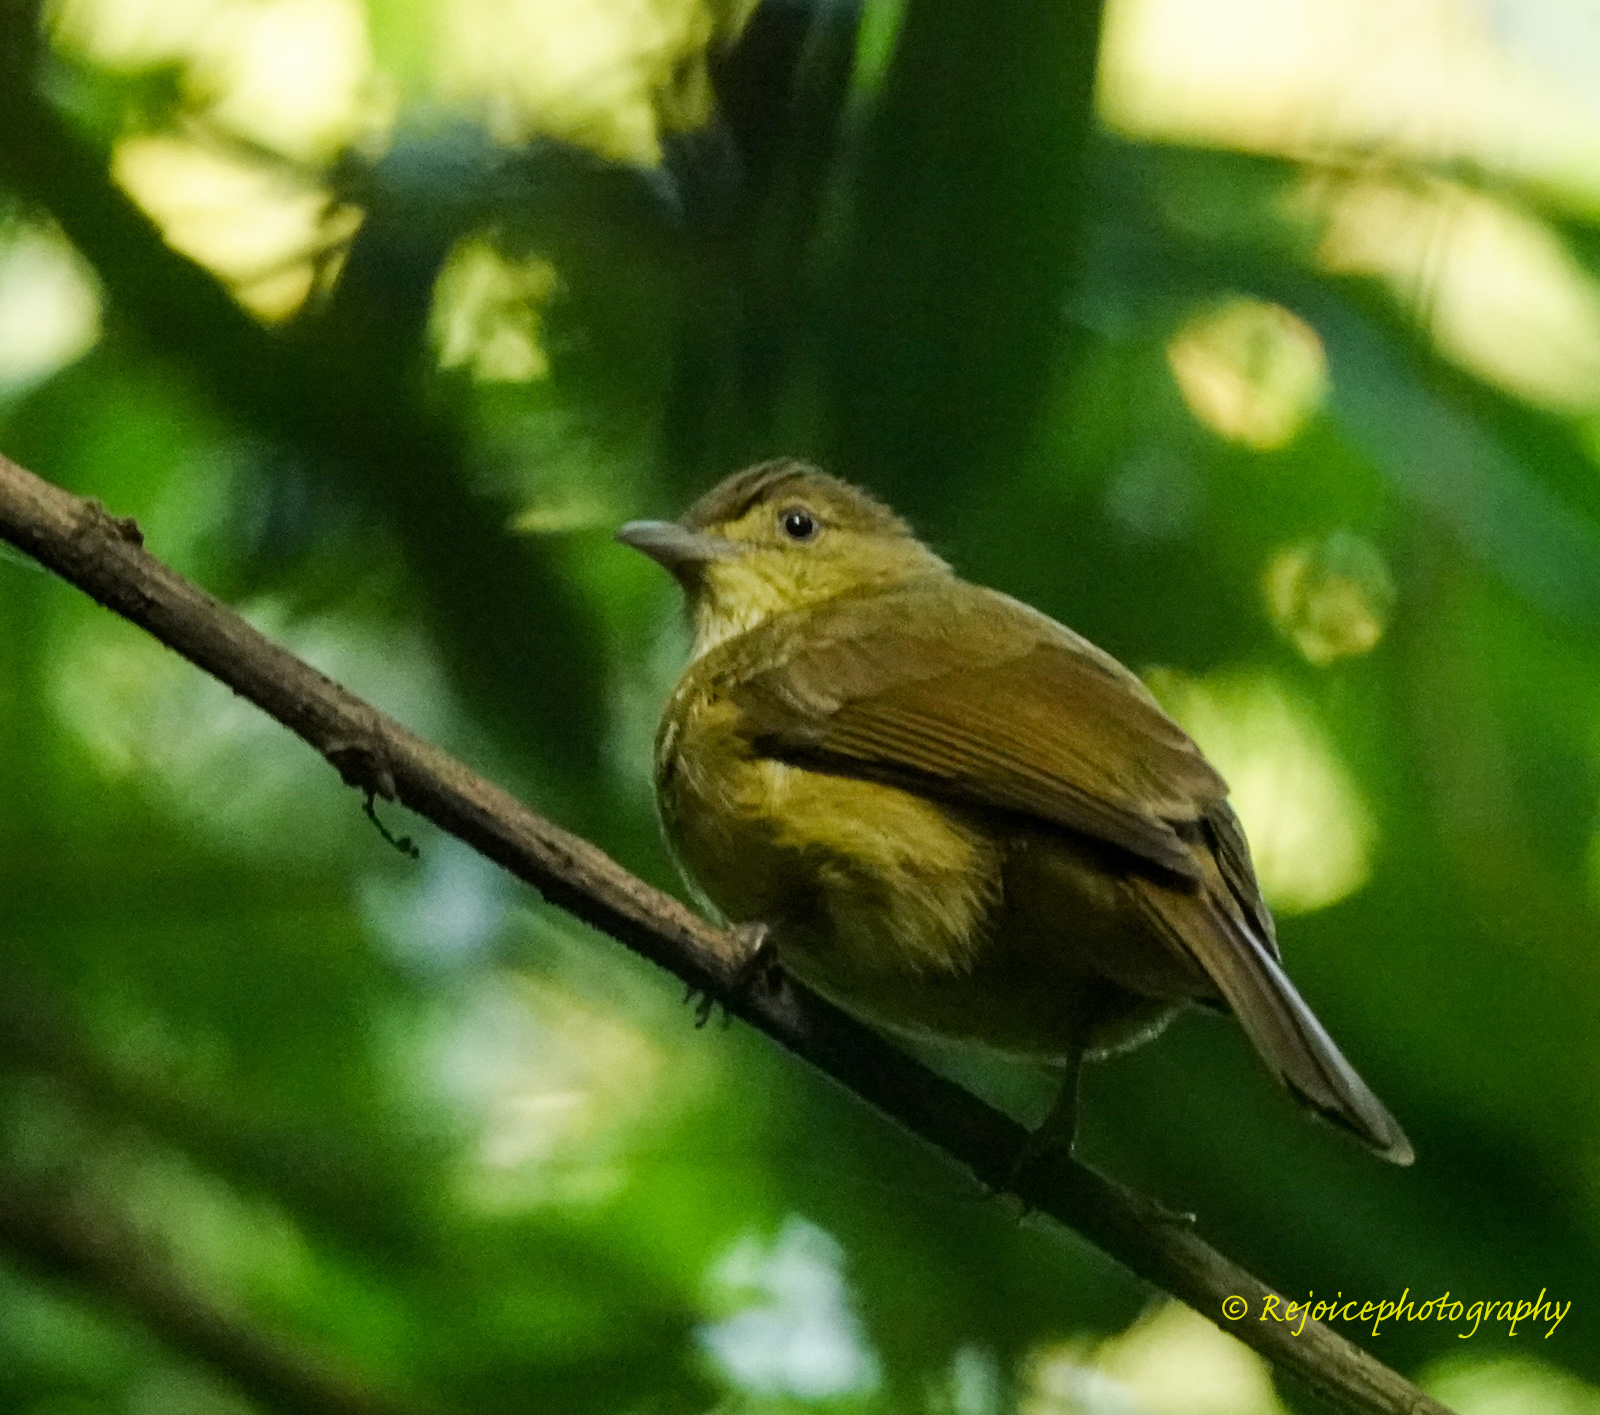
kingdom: Animalia
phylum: Chordata
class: Aves
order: Passeriformes
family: Pycnonotidae
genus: Iole
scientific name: Iole virescens
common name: Olive bulbul
